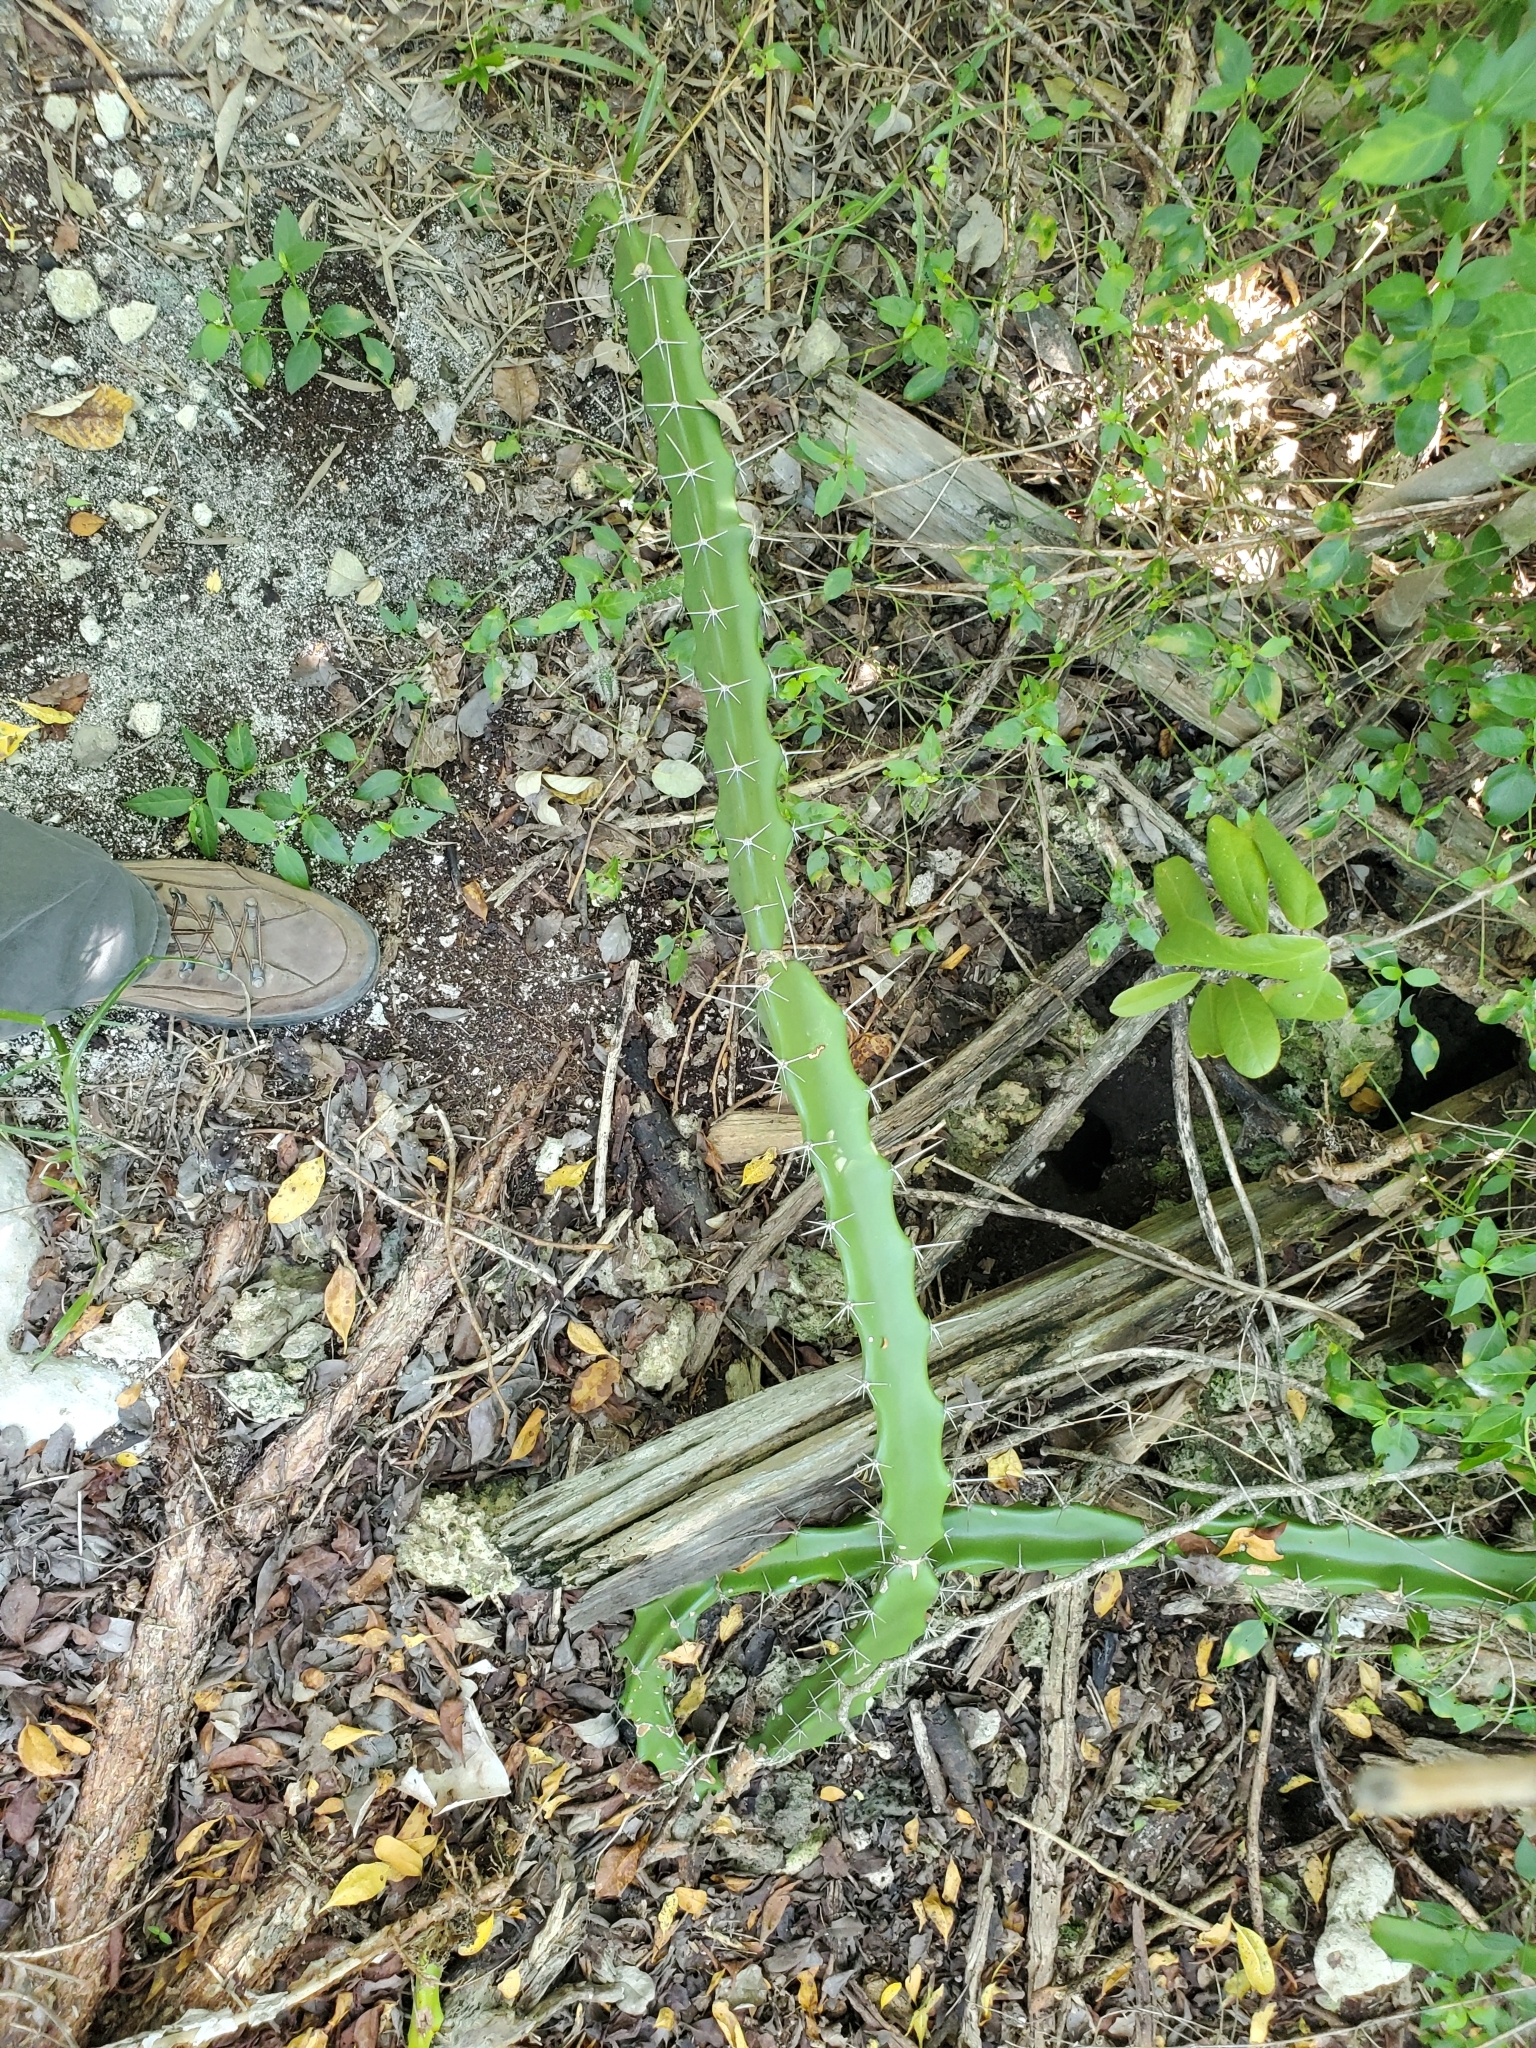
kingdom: Plantae
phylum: Tracheophyta
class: Magnoliopsida
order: Caryophyllales
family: Cactaceae
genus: Acanthocereus
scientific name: Acanthocereus tetragonus
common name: Triangle cactus
